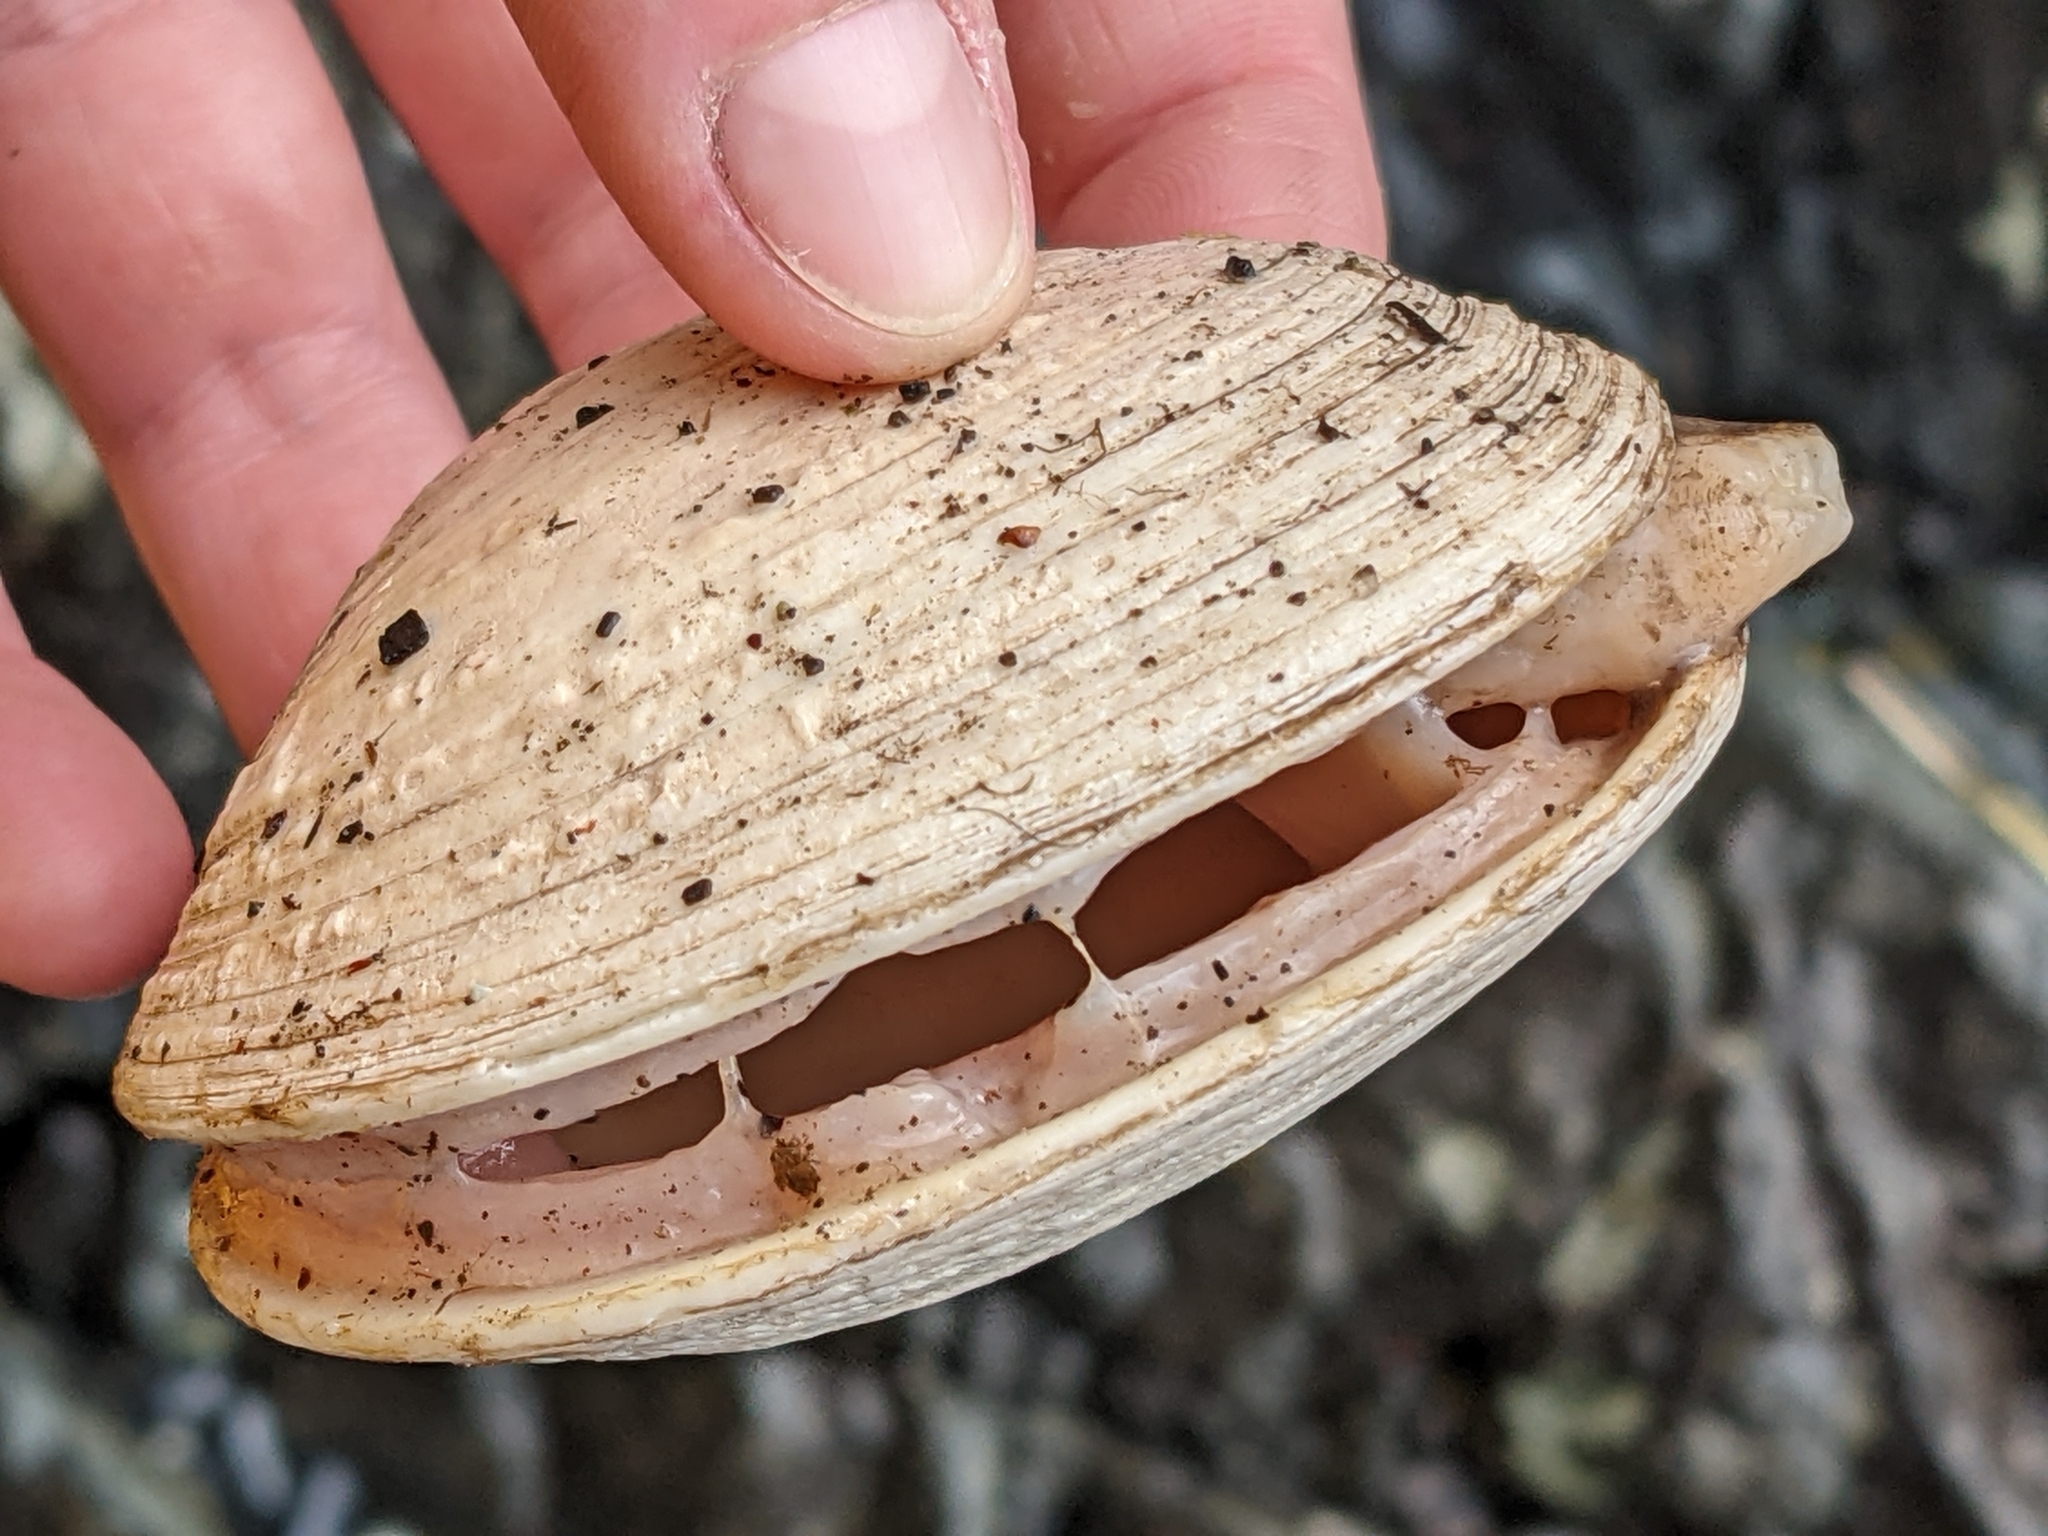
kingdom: Animalia
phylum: Mollusca
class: Bivalvia
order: Venerida
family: Veneridae
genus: Saxidomus
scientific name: Saxidomus gigantea
